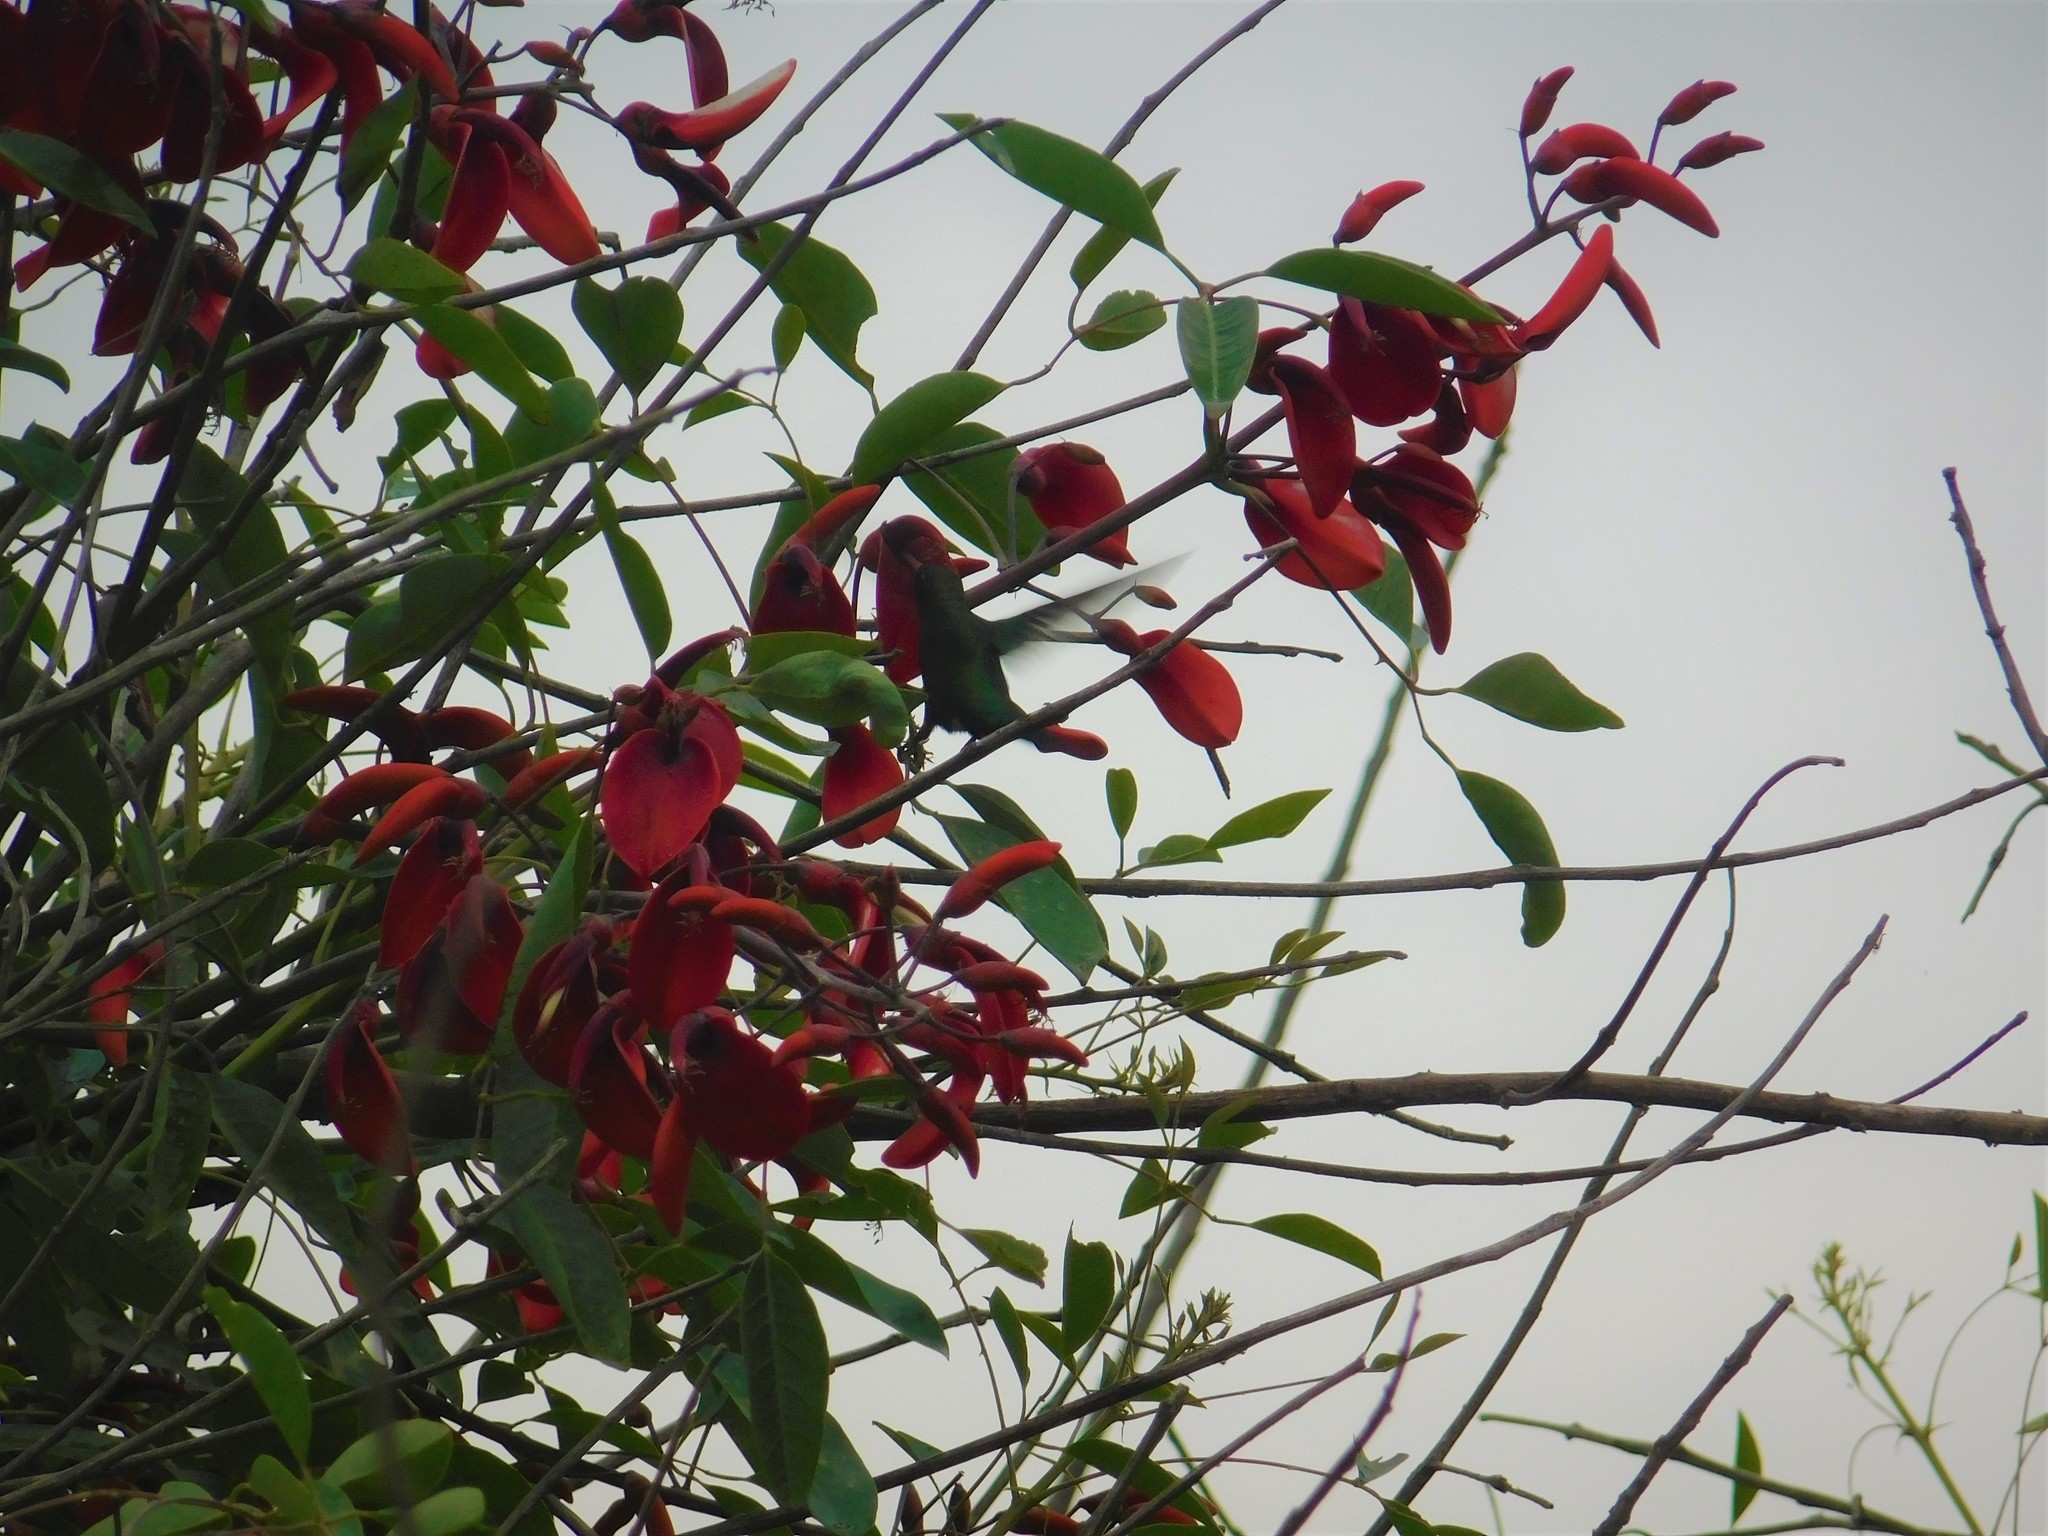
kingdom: Animalia
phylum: Chordata
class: Aves
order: Apodiformes
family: Trochilidae
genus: Chlorostilbon
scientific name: Chlorostilbon lucidus
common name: Glittering-bellied emerald
